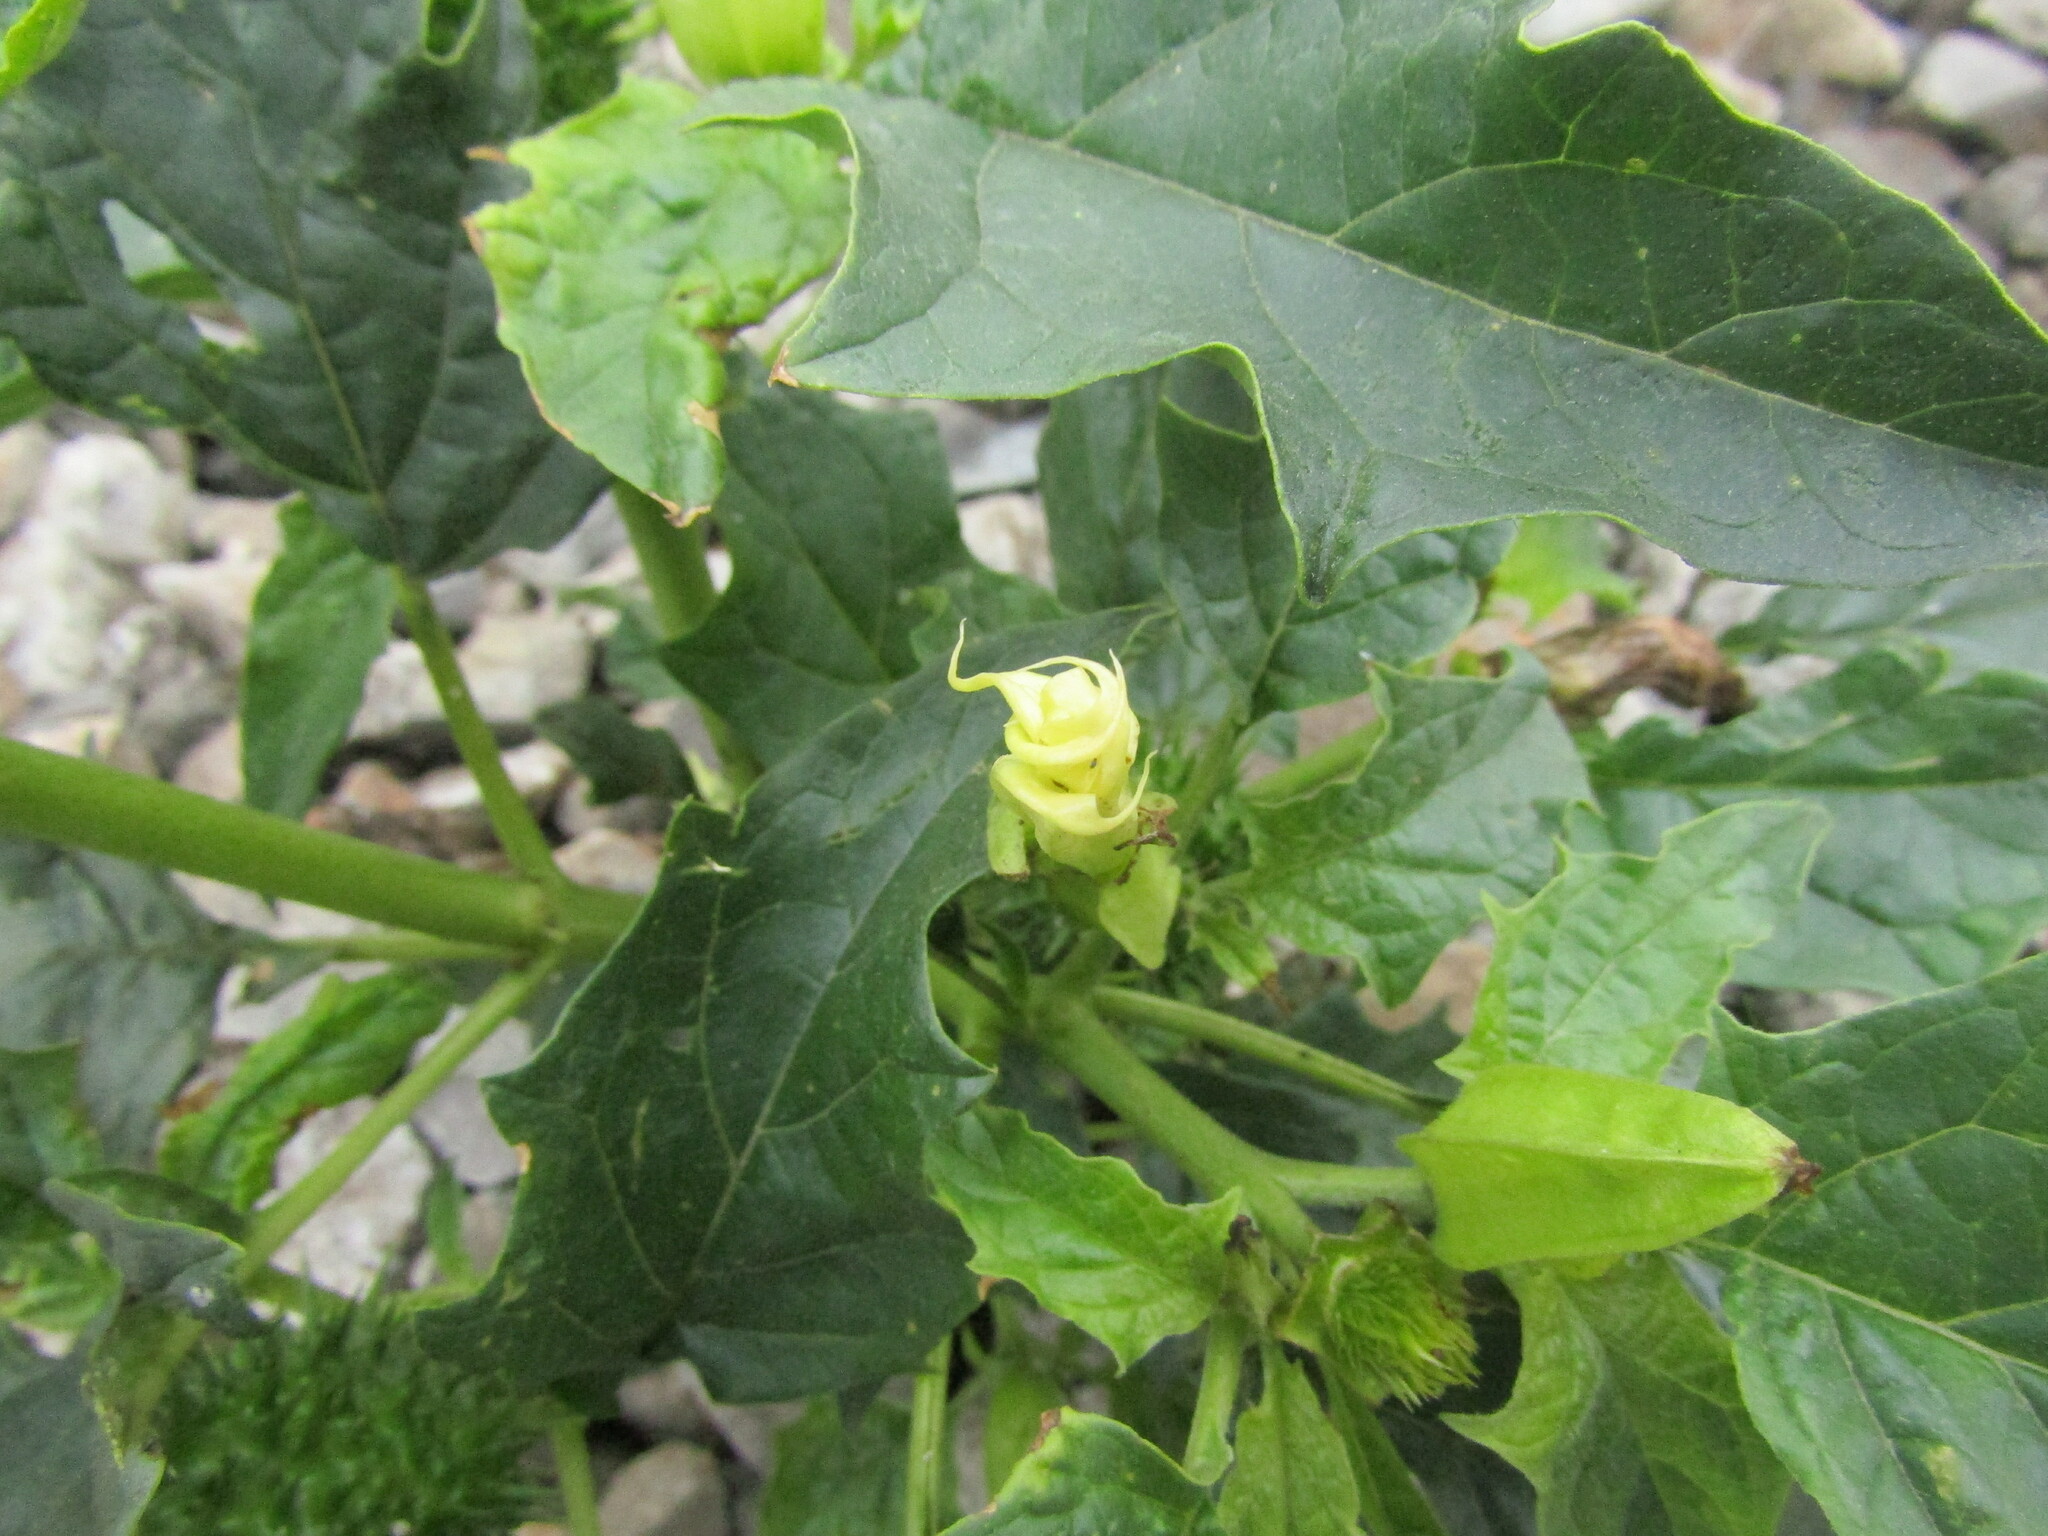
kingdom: Plantae
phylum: Tracheophyta
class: Magnoliopsida
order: Solanales
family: Solanaceae
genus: Datura
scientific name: Datura stramonium
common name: Thorn-apple
